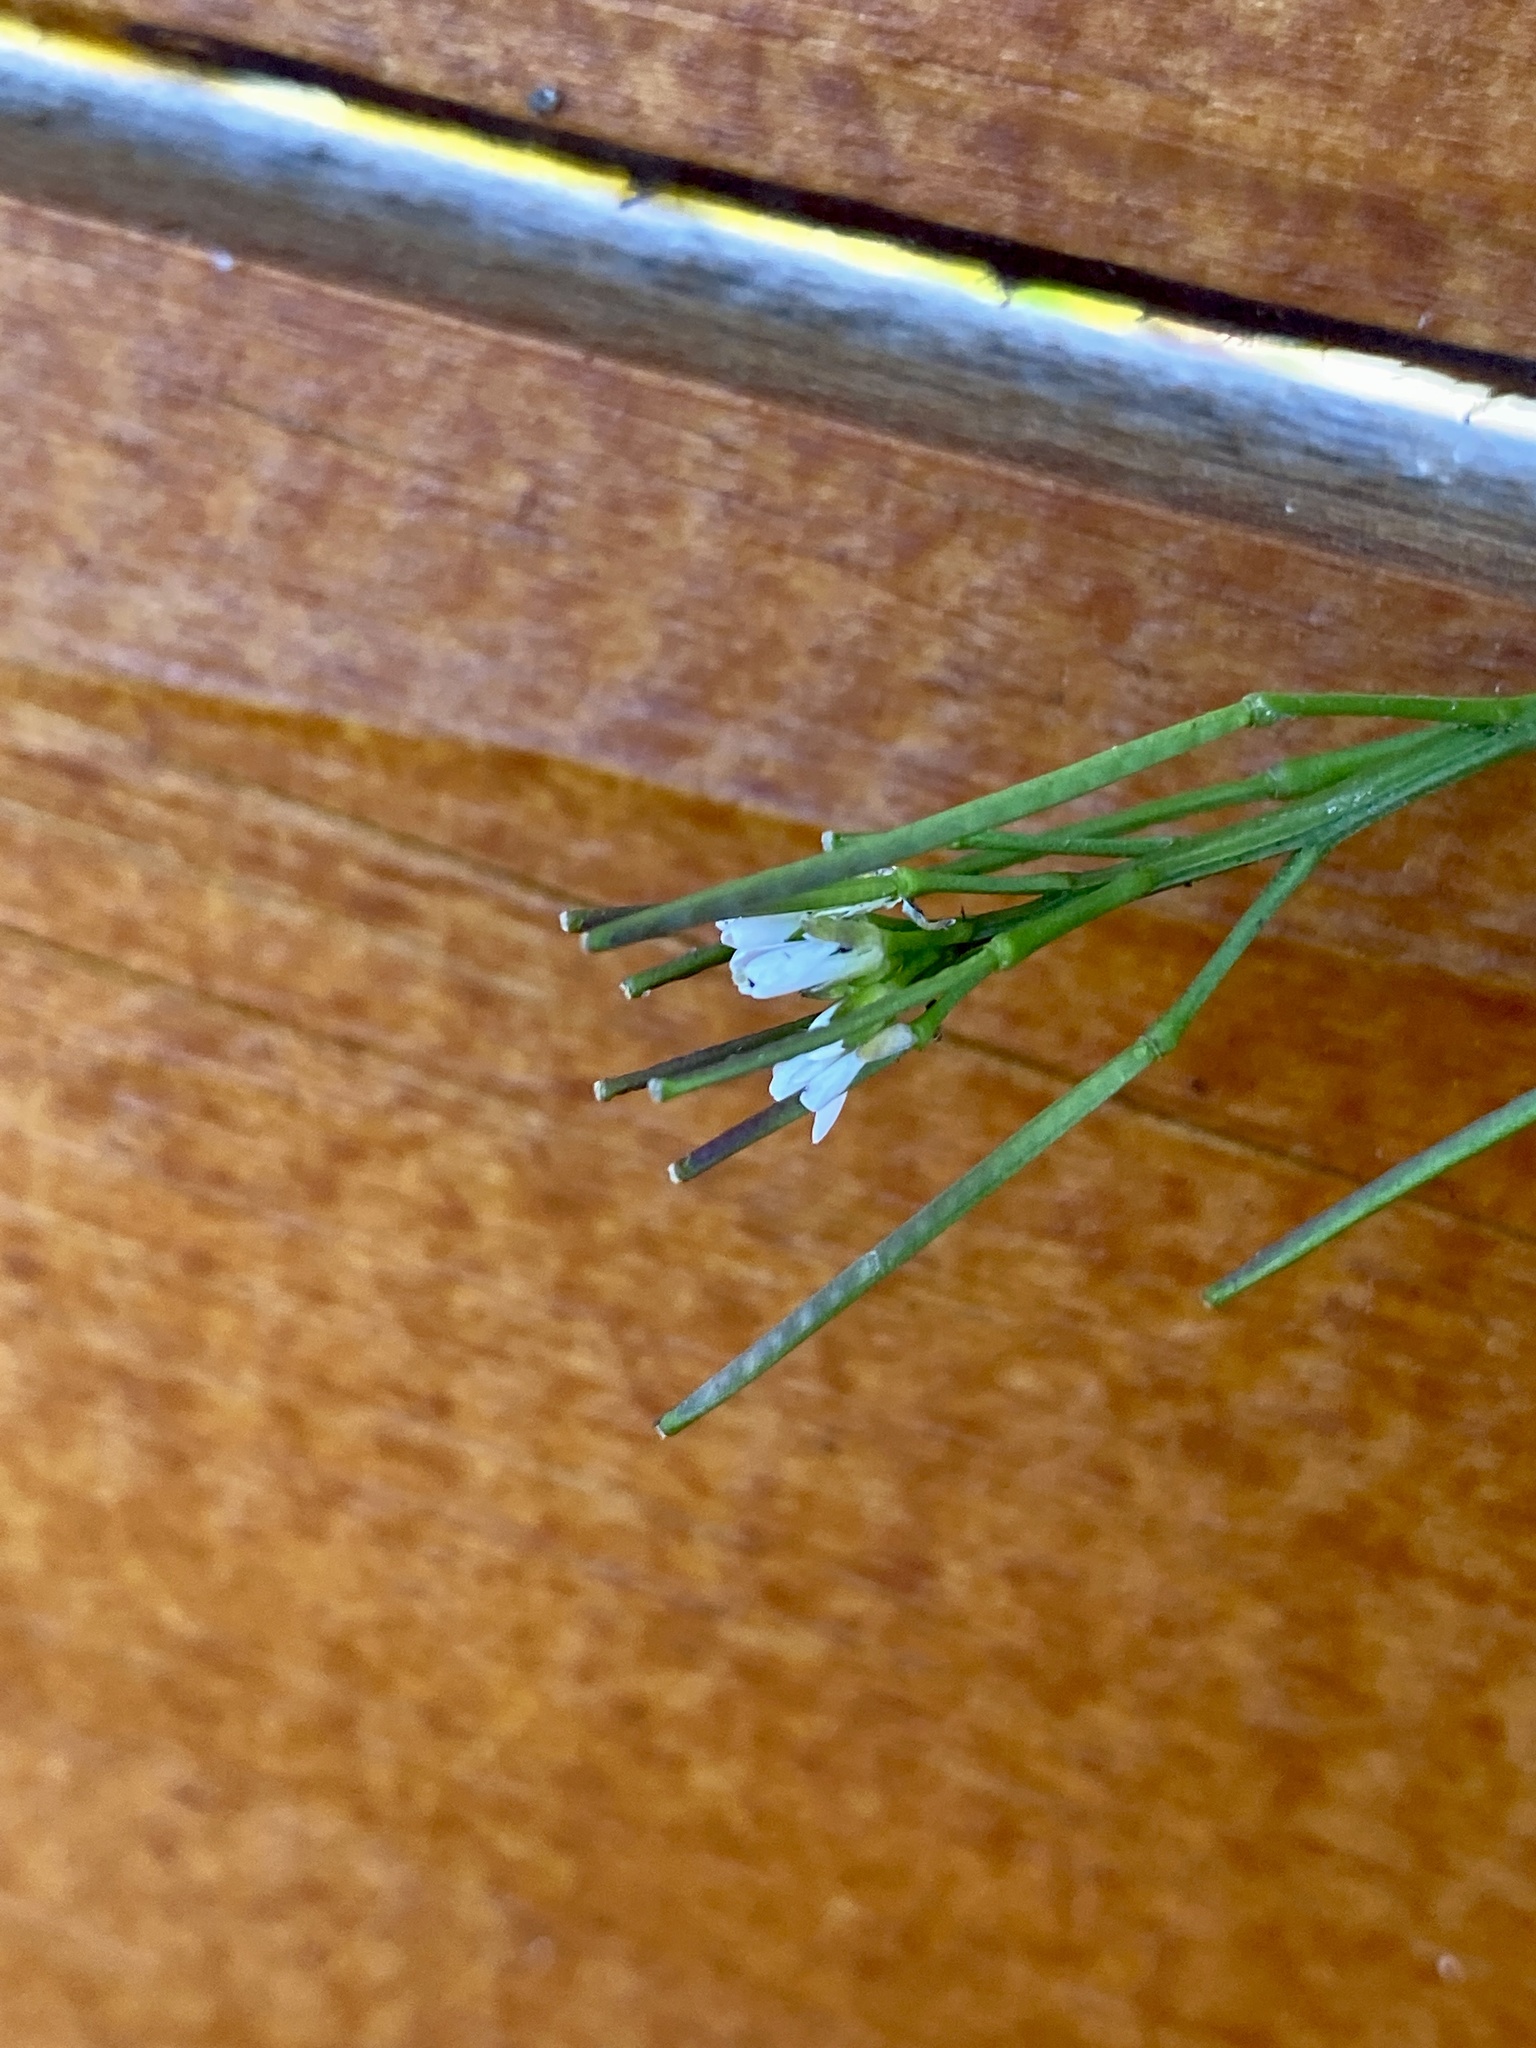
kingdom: Plantae
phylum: Tracheophyta
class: Magnoliopsida
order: Brassicales
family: Brassicaceae
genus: Cardamine
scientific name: Cardamine hirsuta
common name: Hairy bittercress
